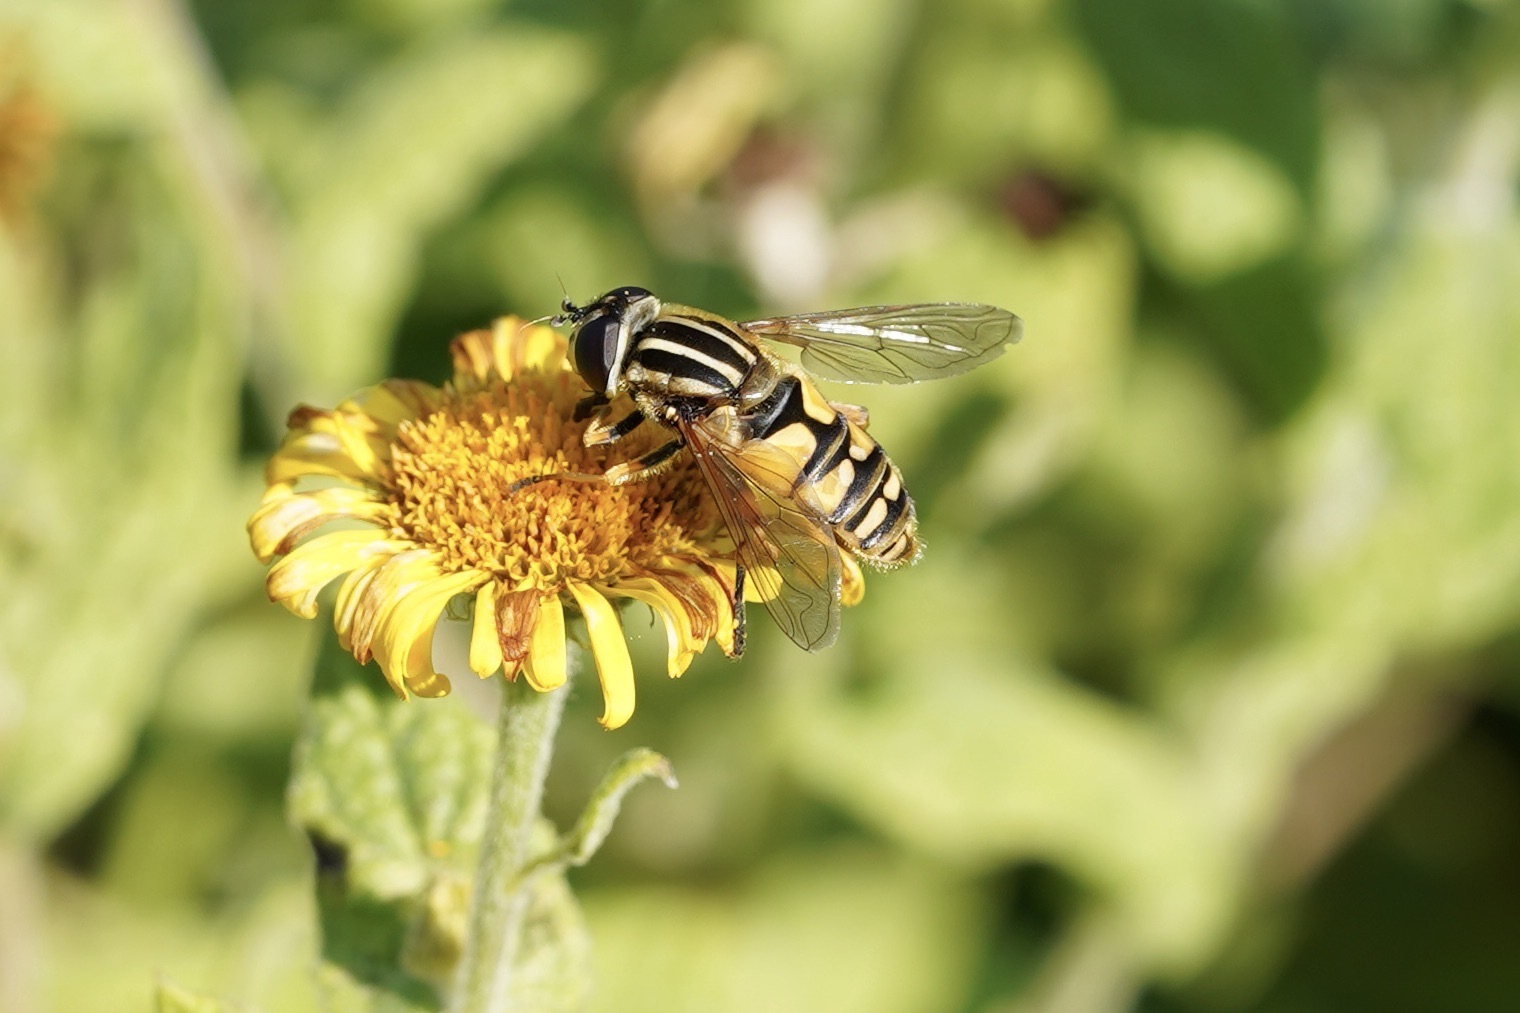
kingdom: Animalia
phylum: Arthropoda
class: Insecta
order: Diptera
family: Syrphidae
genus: Helophilus
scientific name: Helophilus pendulus
